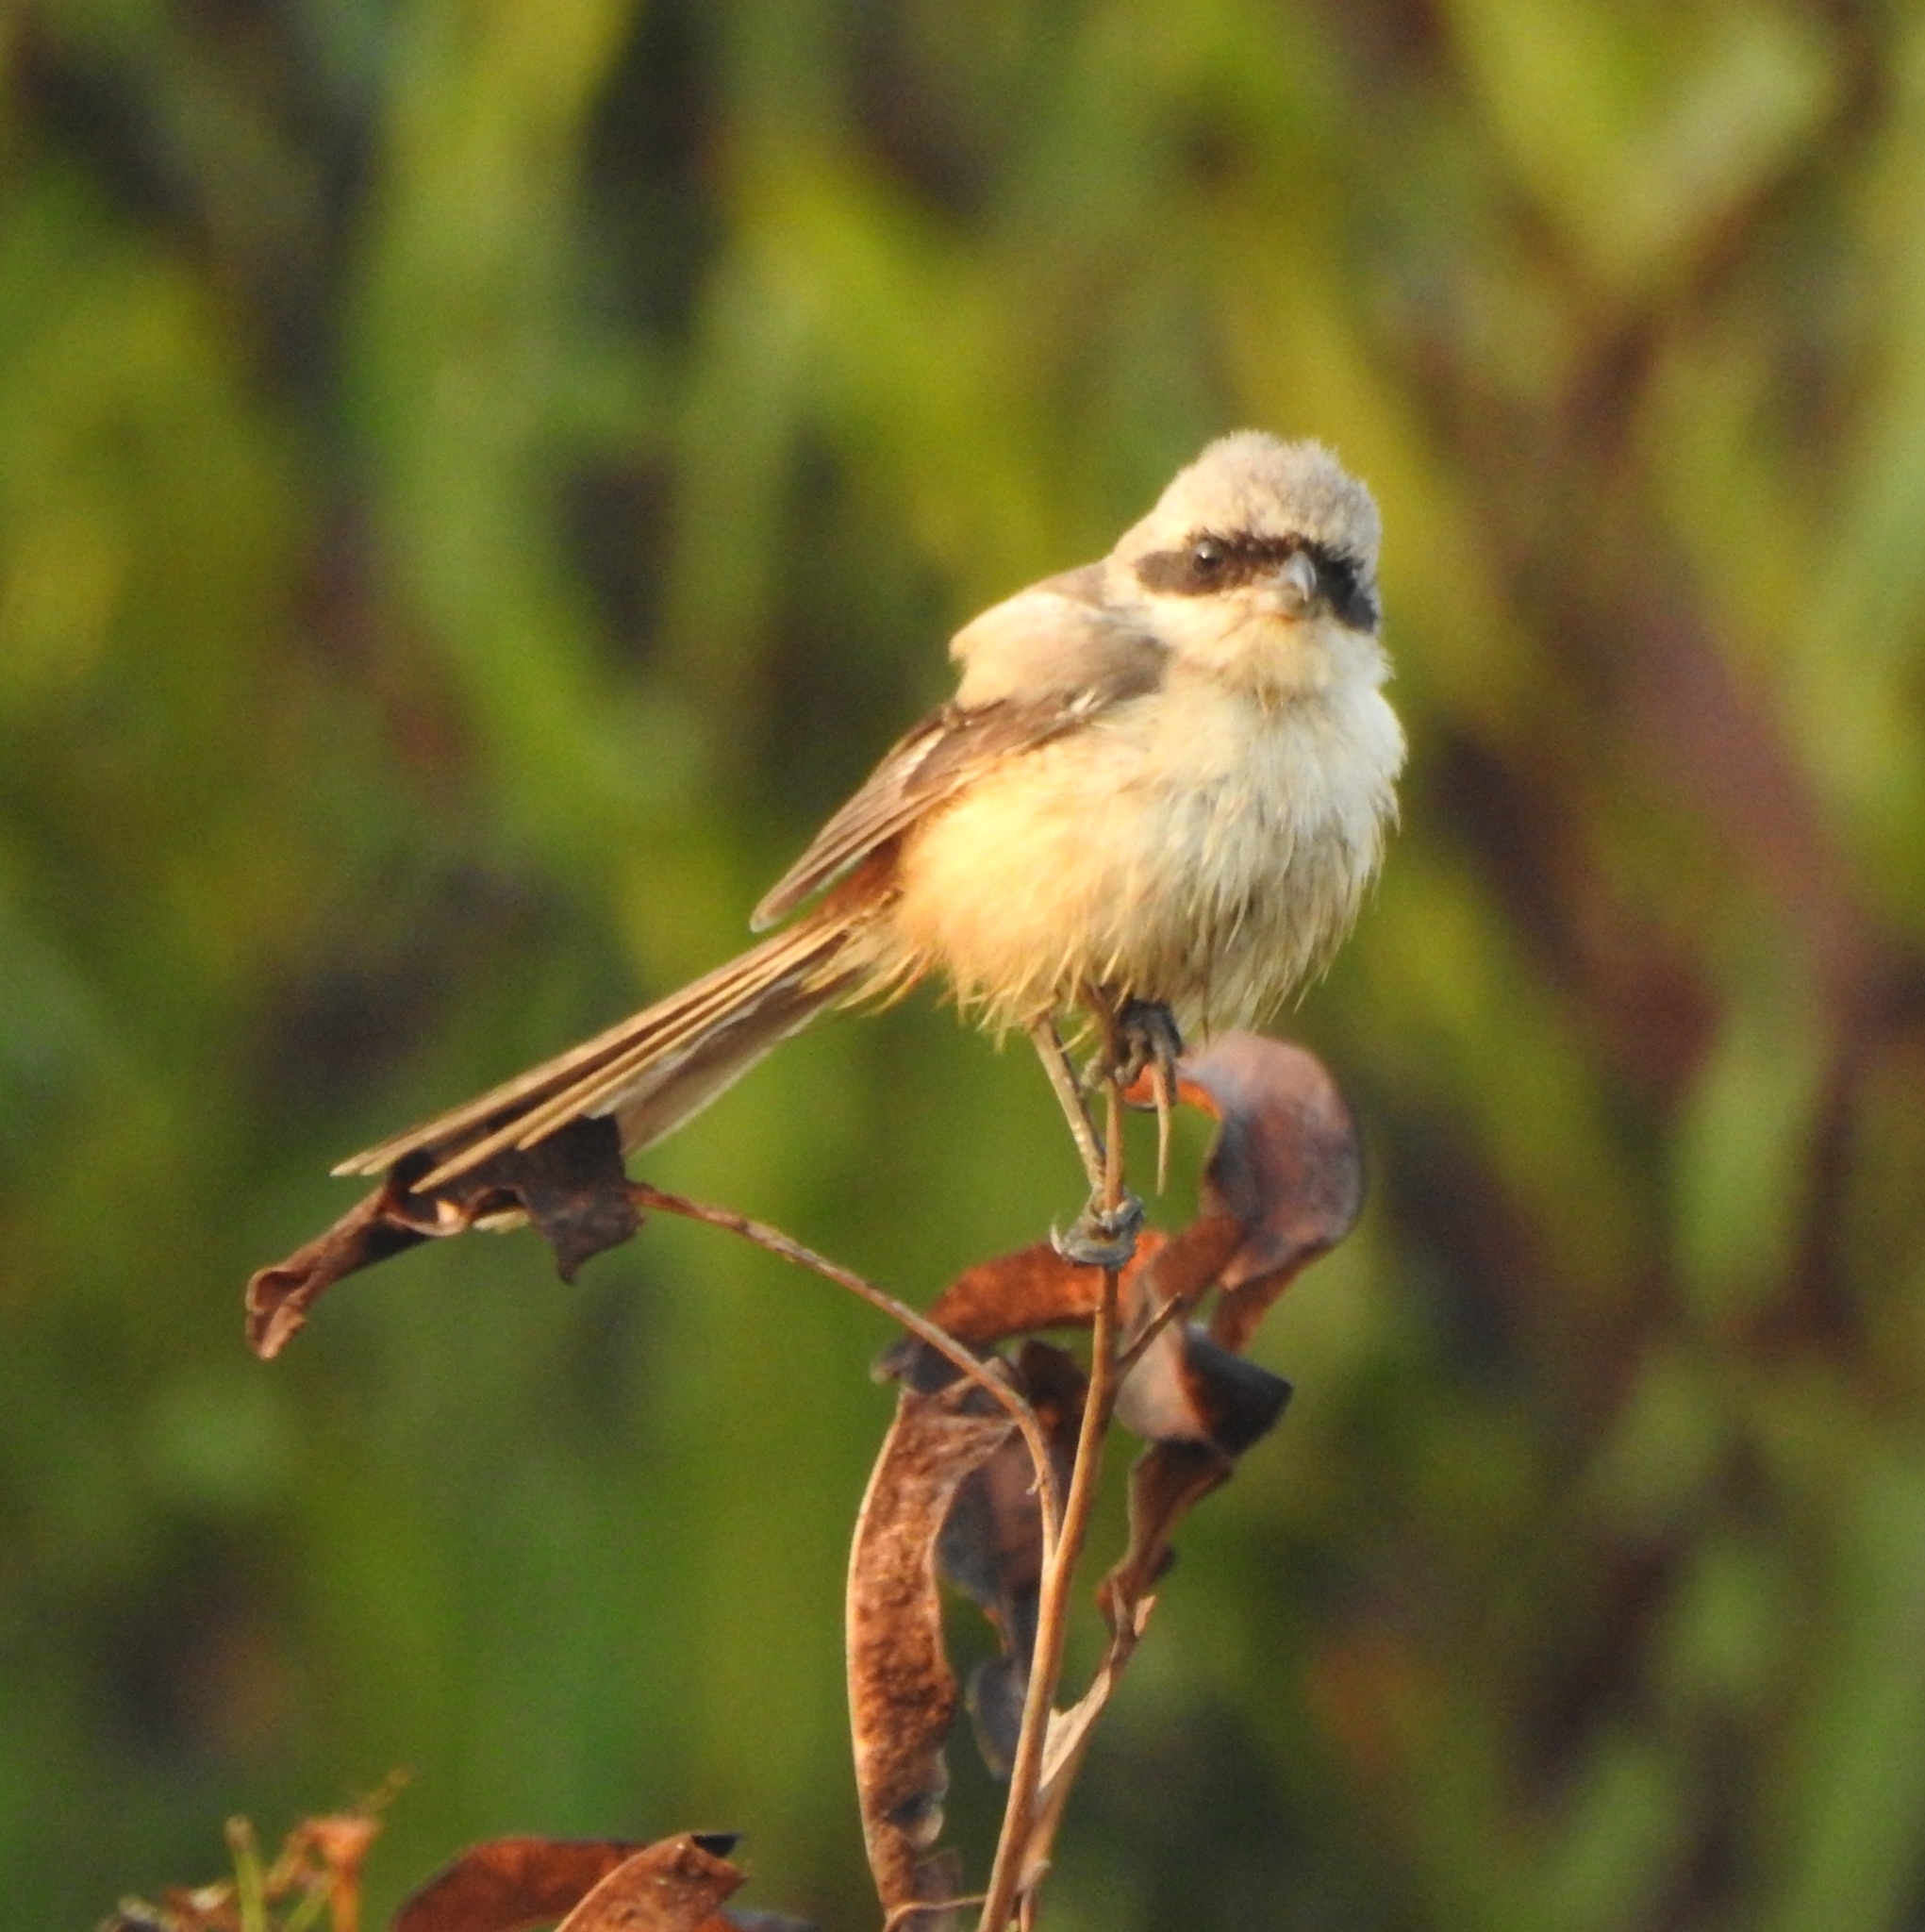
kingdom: Animalia
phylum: Chordata
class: Aves
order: Passeriformes
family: Laniidae
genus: Lanius
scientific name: Lanius schach
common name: Long-tailed shrike
